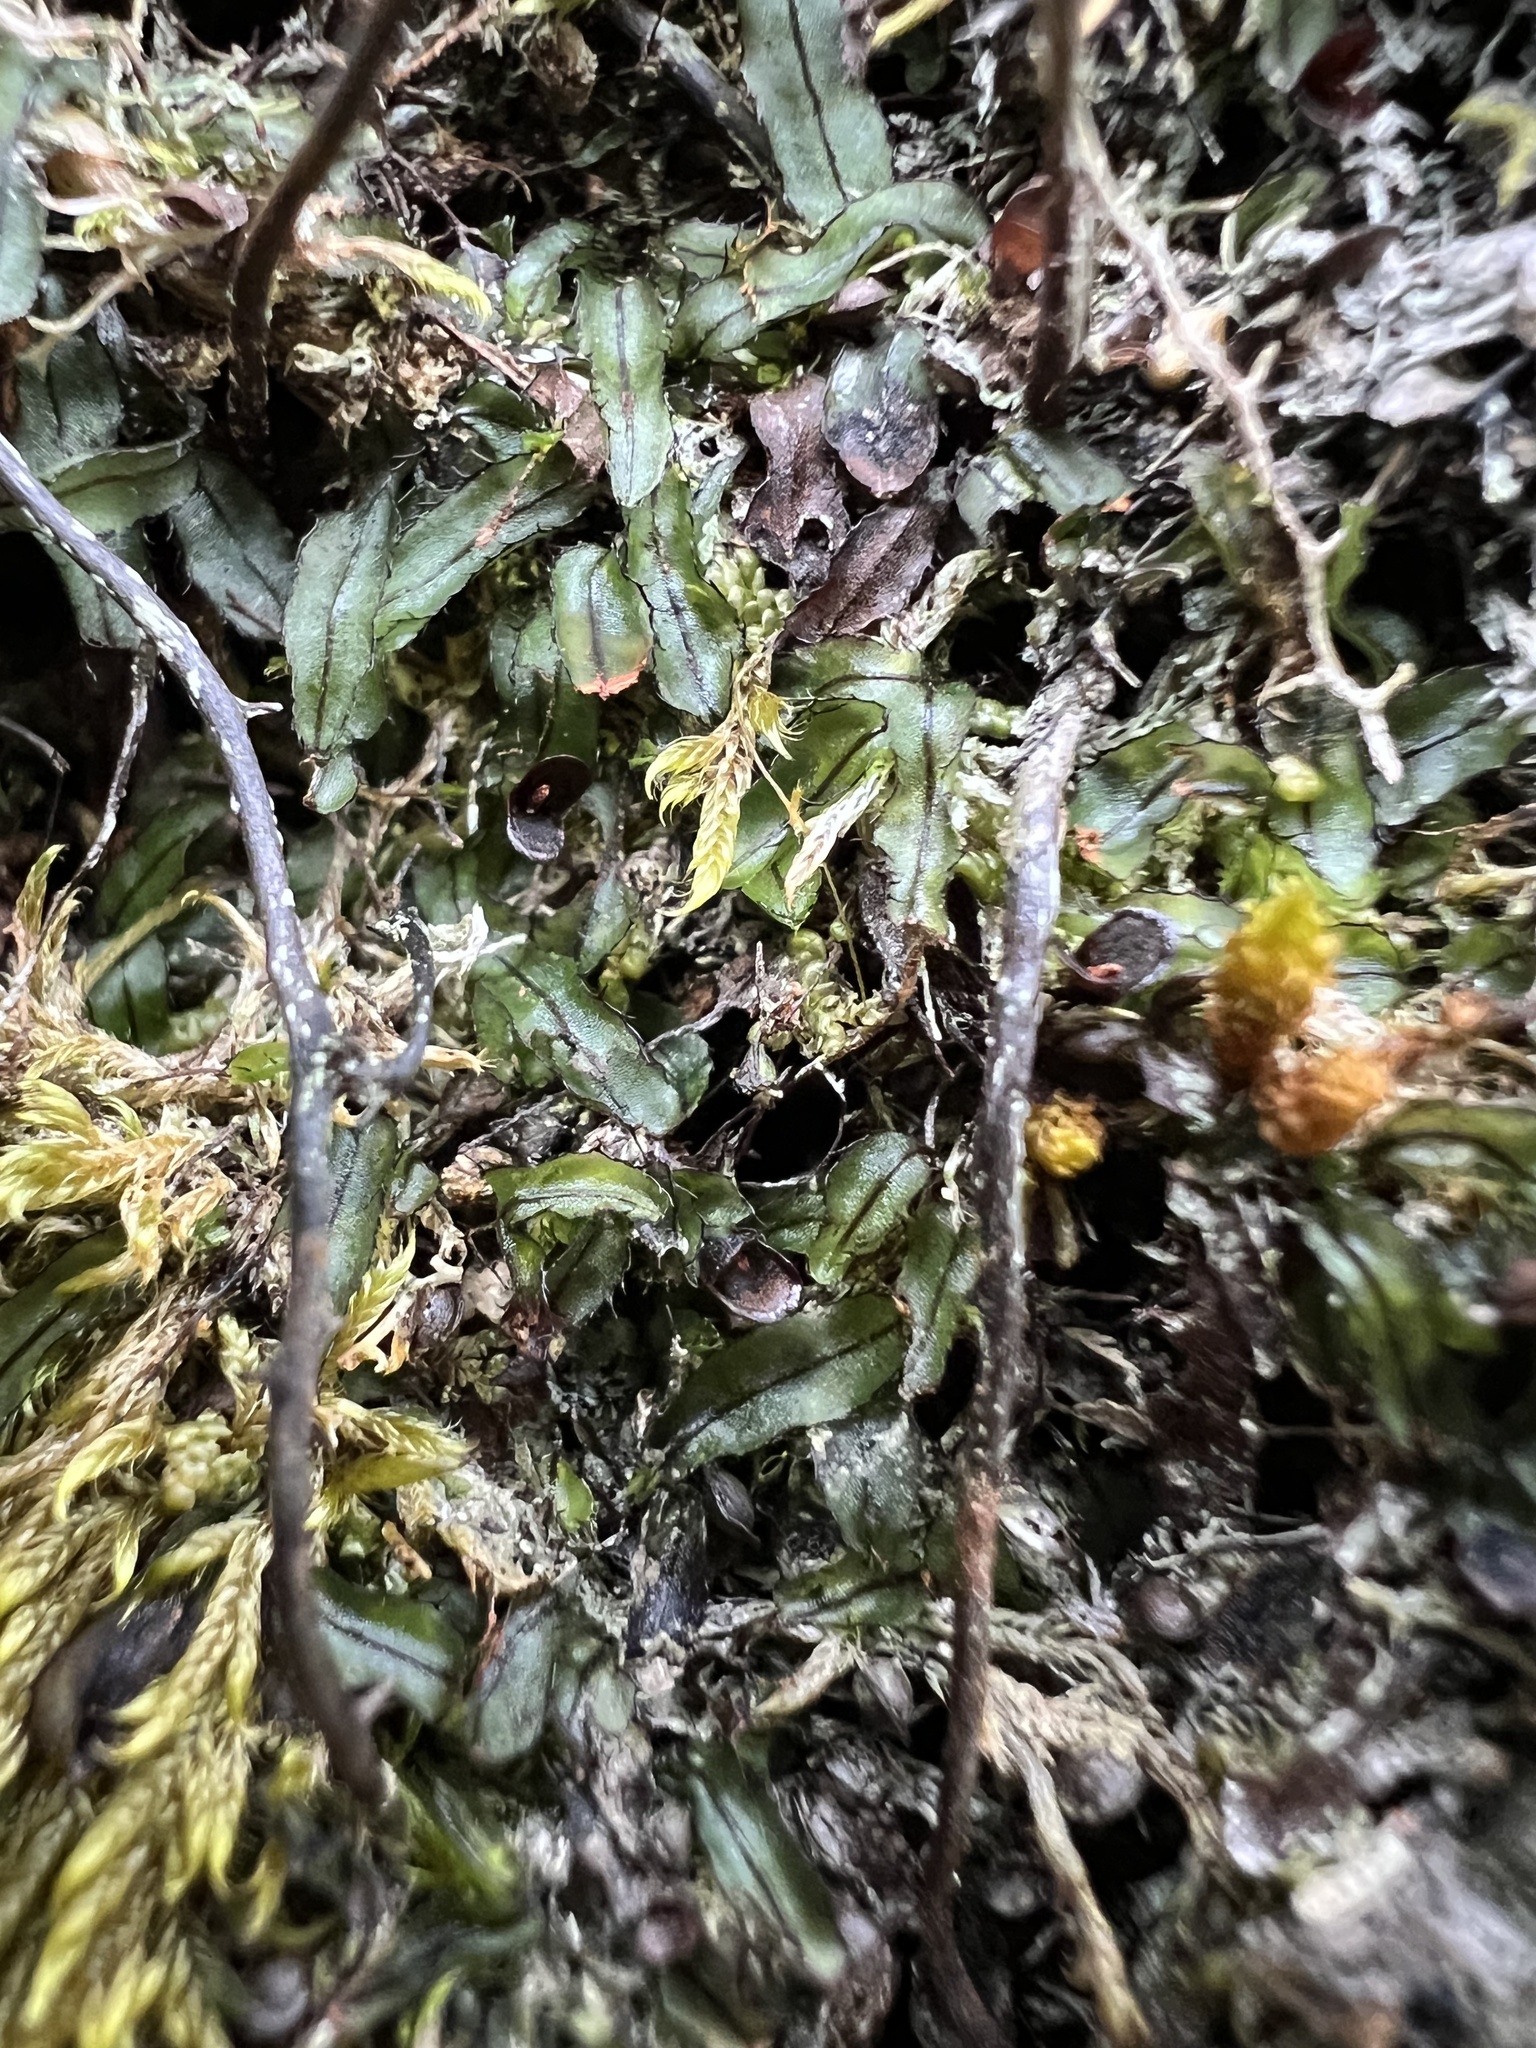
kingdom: Plantae
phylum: Tracheophyta
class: Polypodiopsida
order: Hymenophyllales
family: Hymenophyllaceae
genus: Hymenophyllum
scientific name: Hymenophyllum armstrongii
